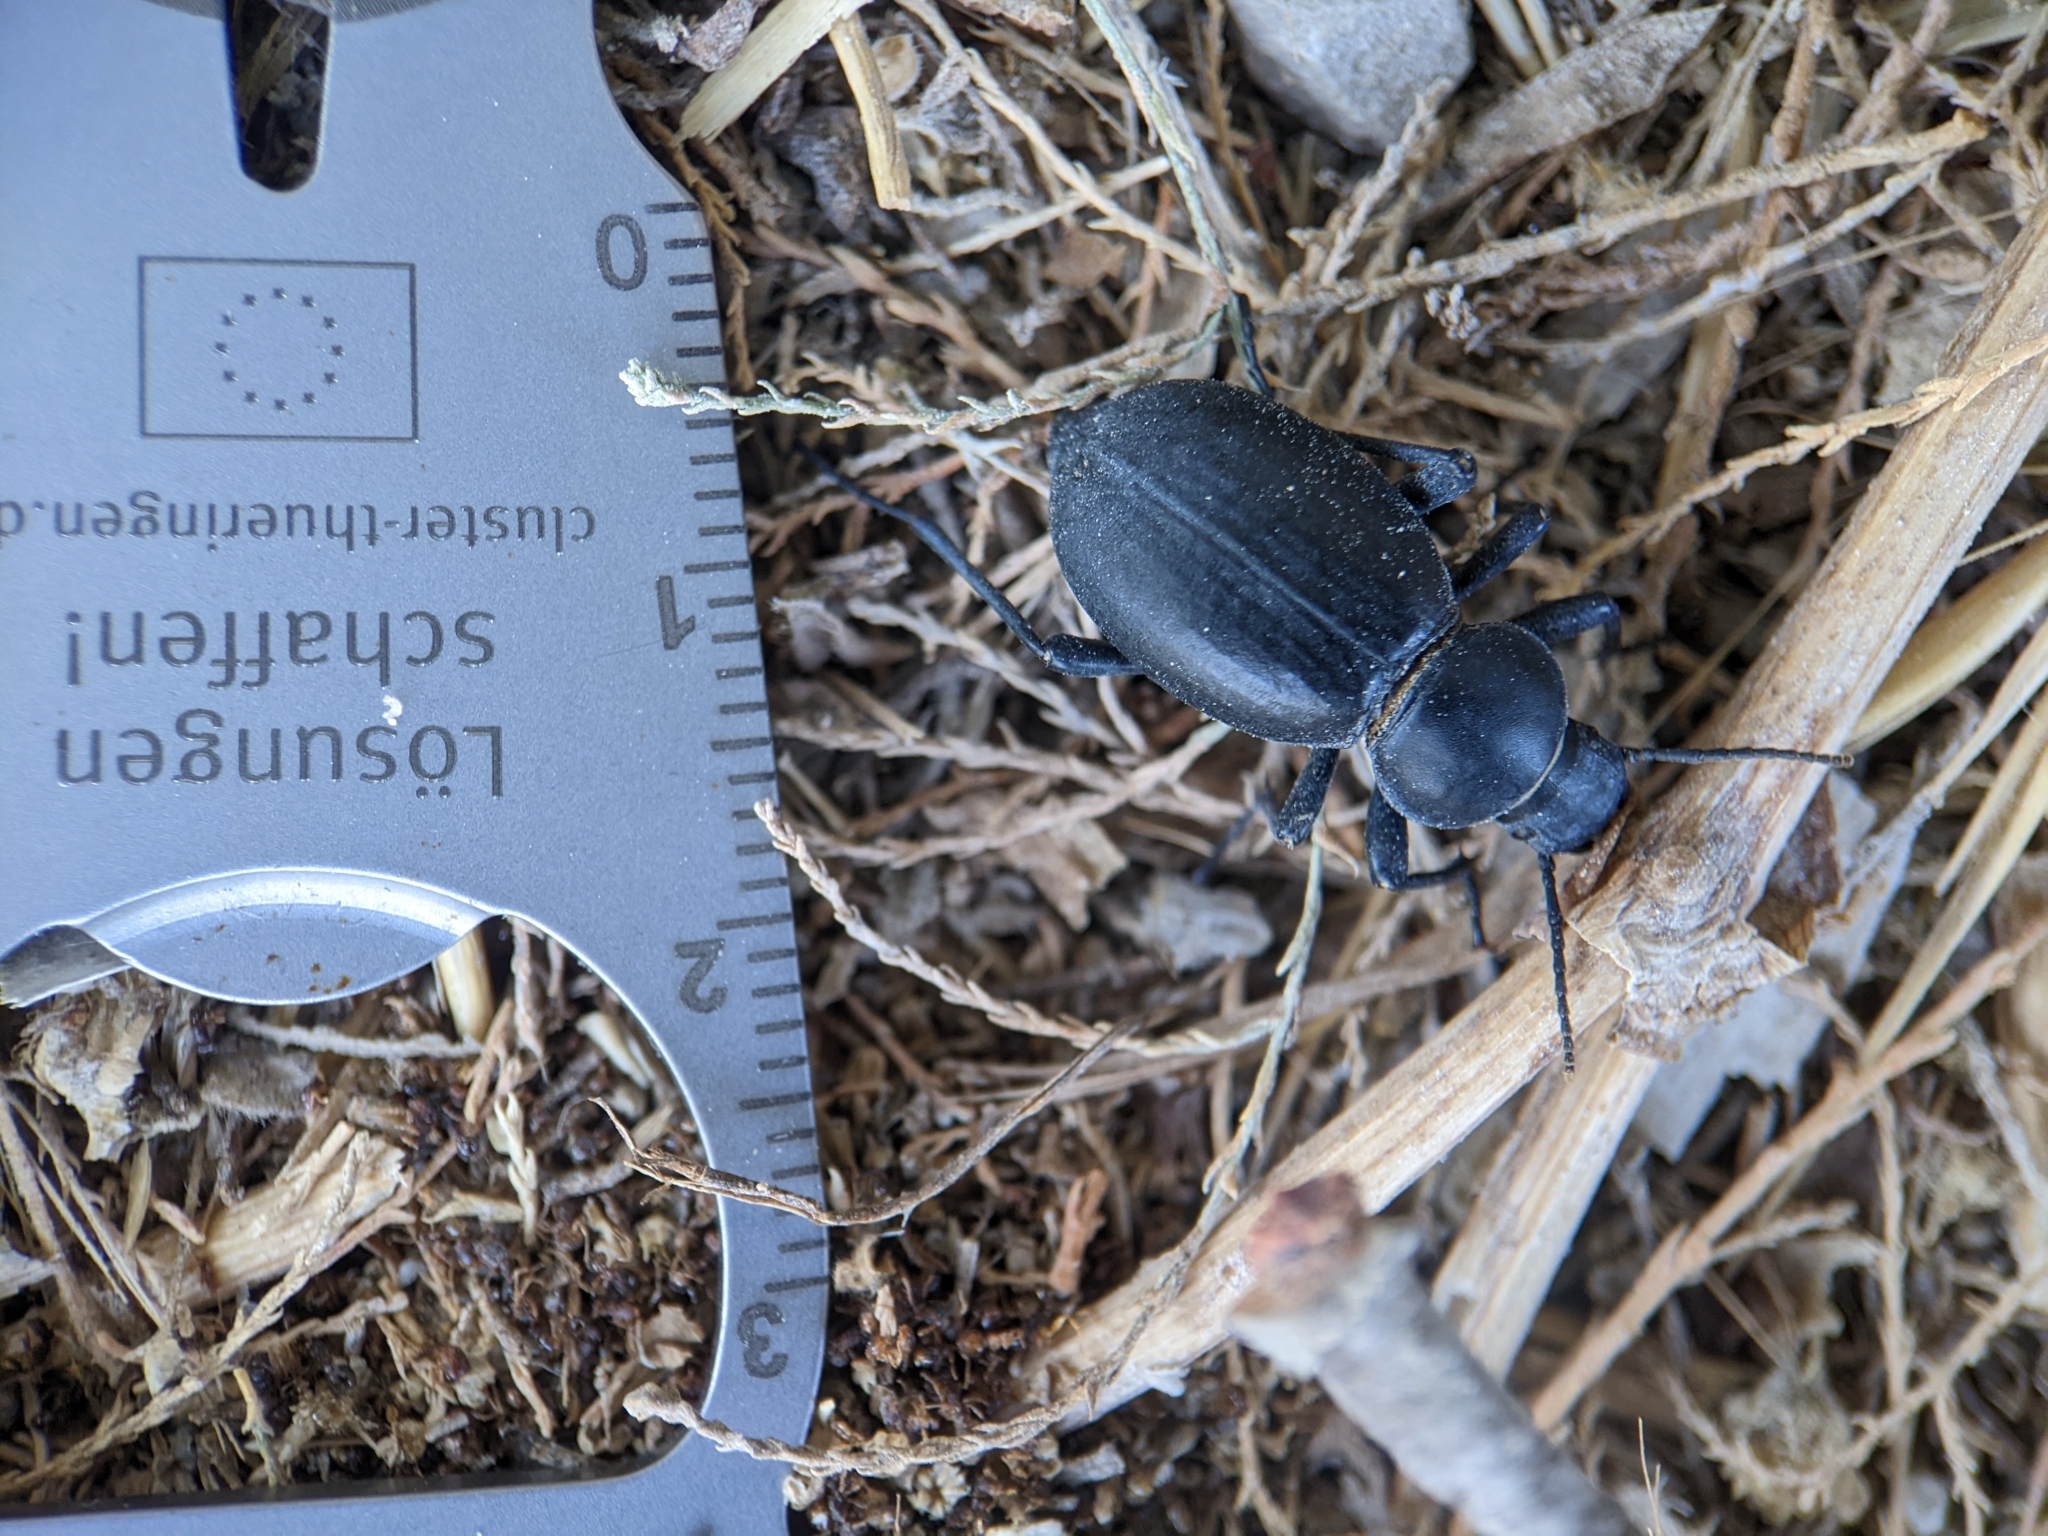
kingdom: Animalia
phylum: Arthropoda
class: Insecta
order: Coleoptera
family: Tenebrionidae
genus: Tentyria
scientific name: Tentyria grossa
